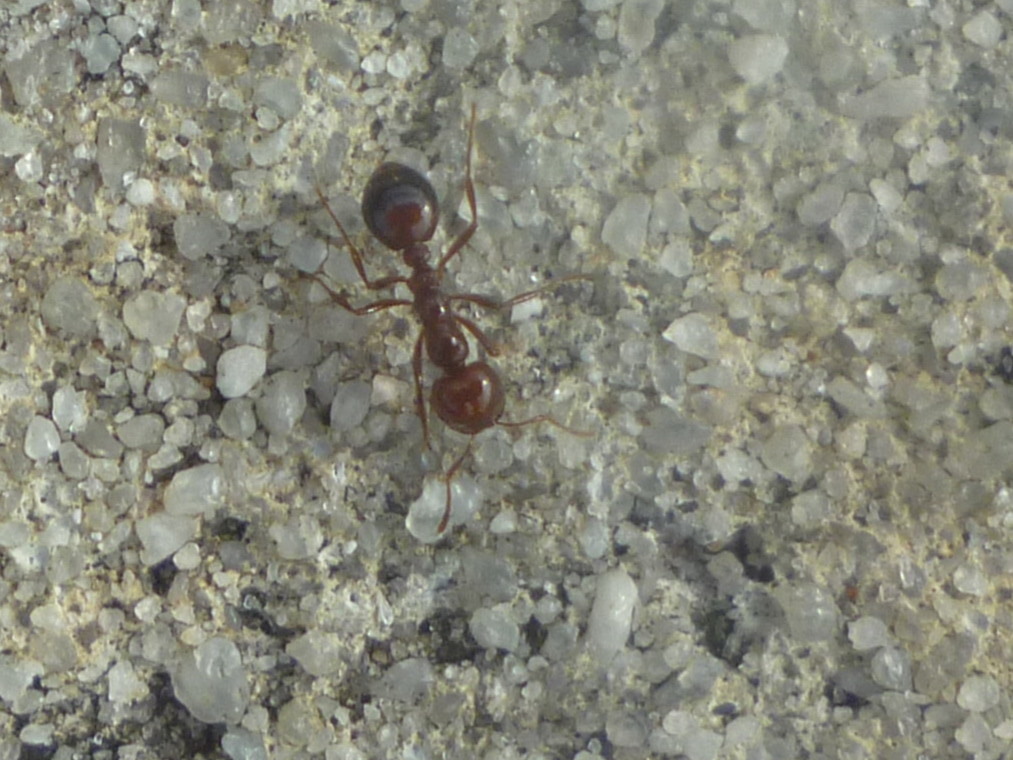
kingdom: Animalia
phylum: Arthropoda
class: Insecta
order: Hymenoptera
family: Formicidae
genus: Solenopsis
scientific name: Solenopsis invicta
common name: Red imported fire ant
